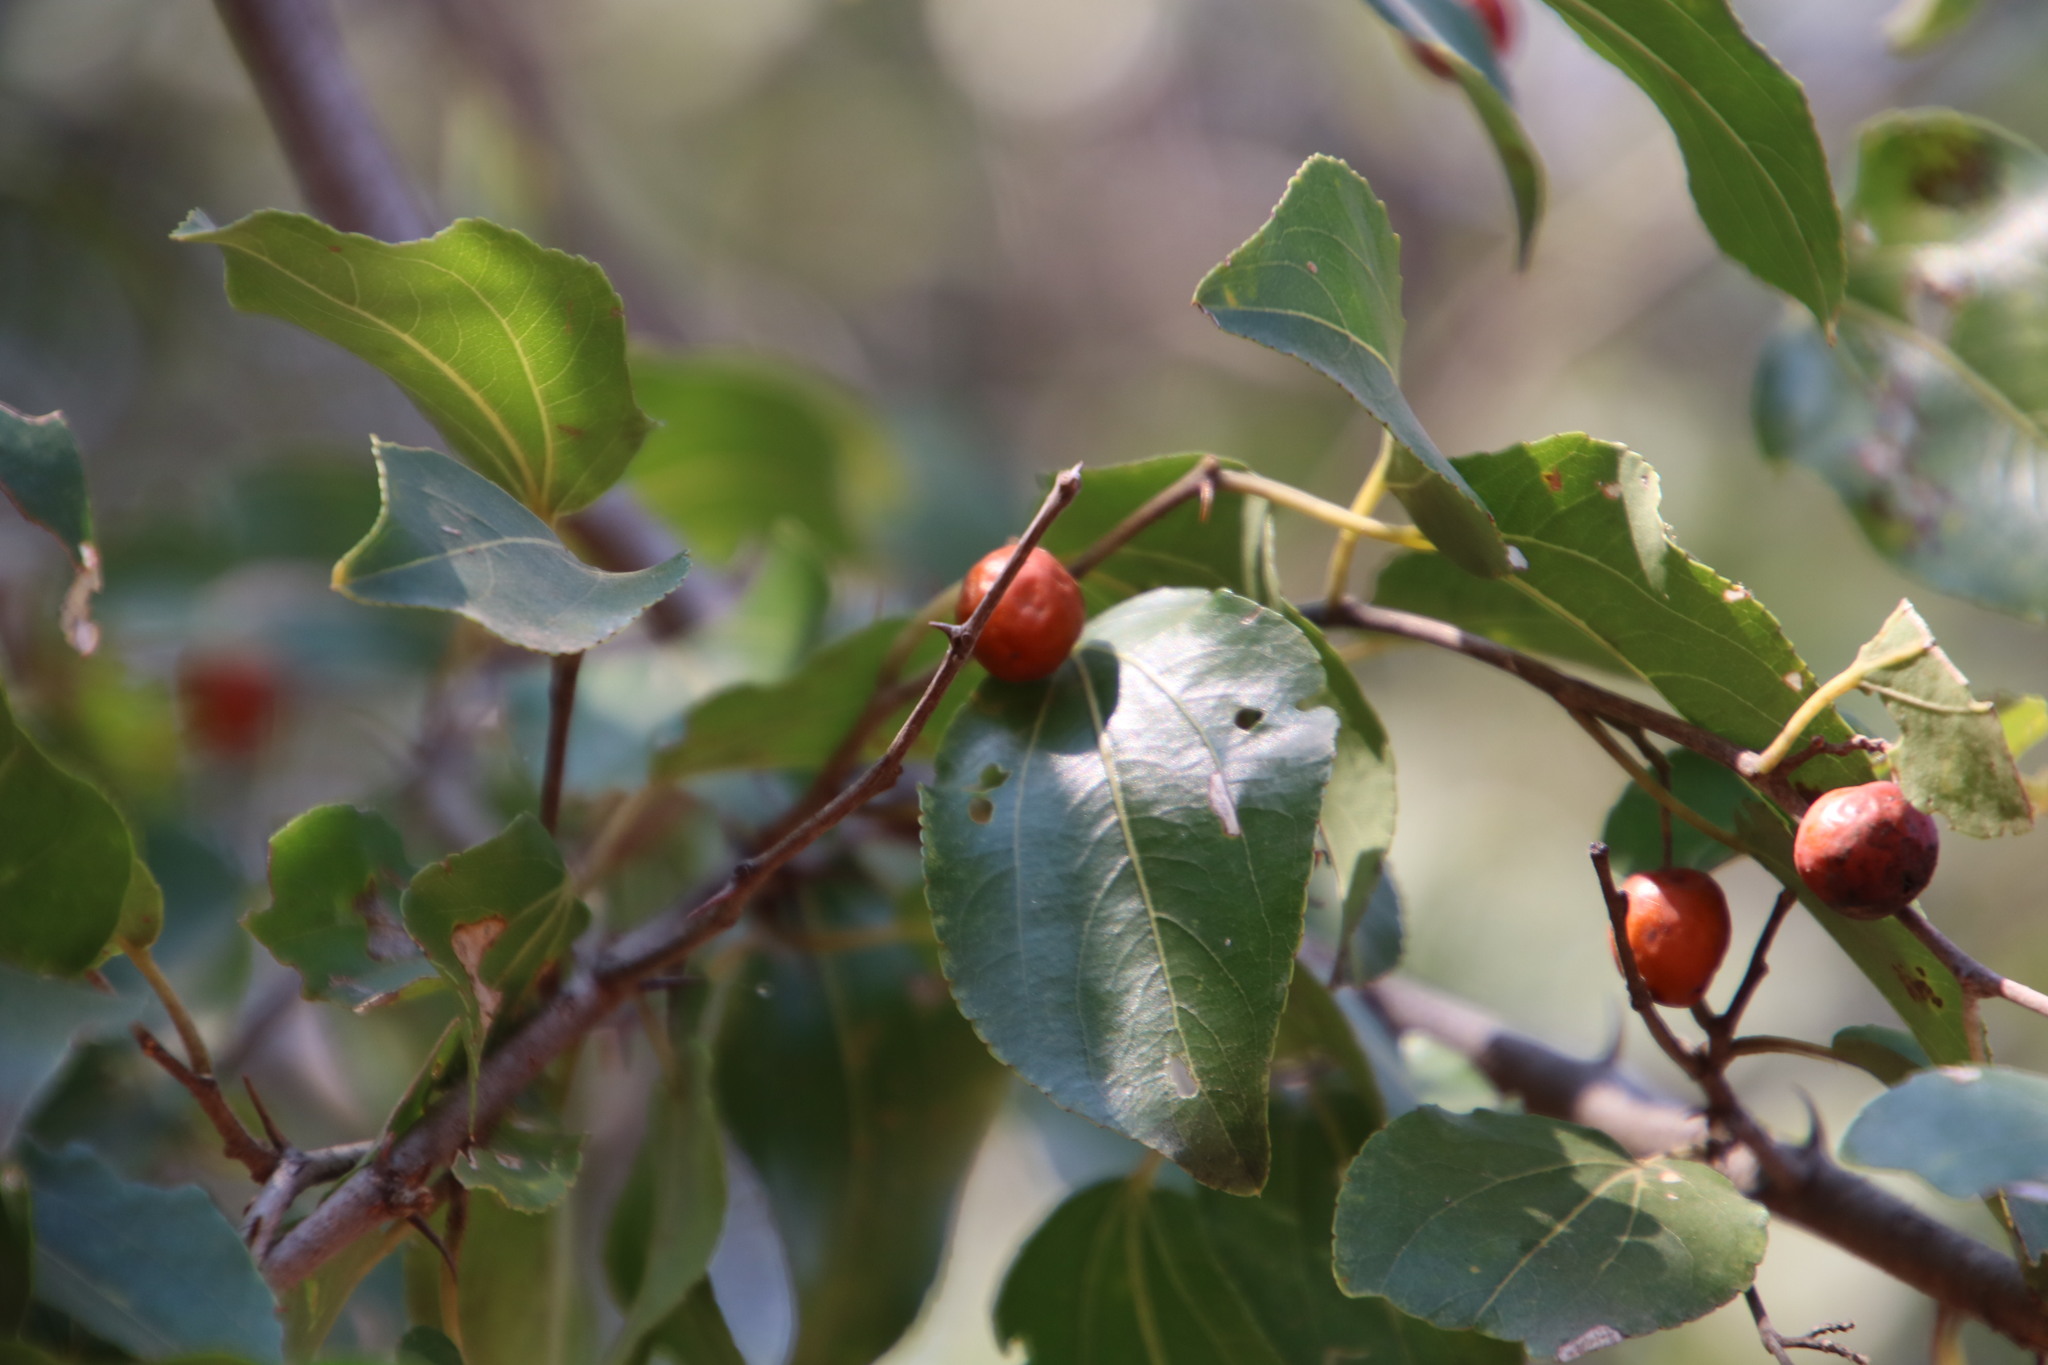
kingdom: Plantae
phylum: Tracheophyta
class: Magnoliopsida
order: Rosales
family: Rhamnaceae
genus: Ziziphus
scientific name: Ziziphus mucronata
